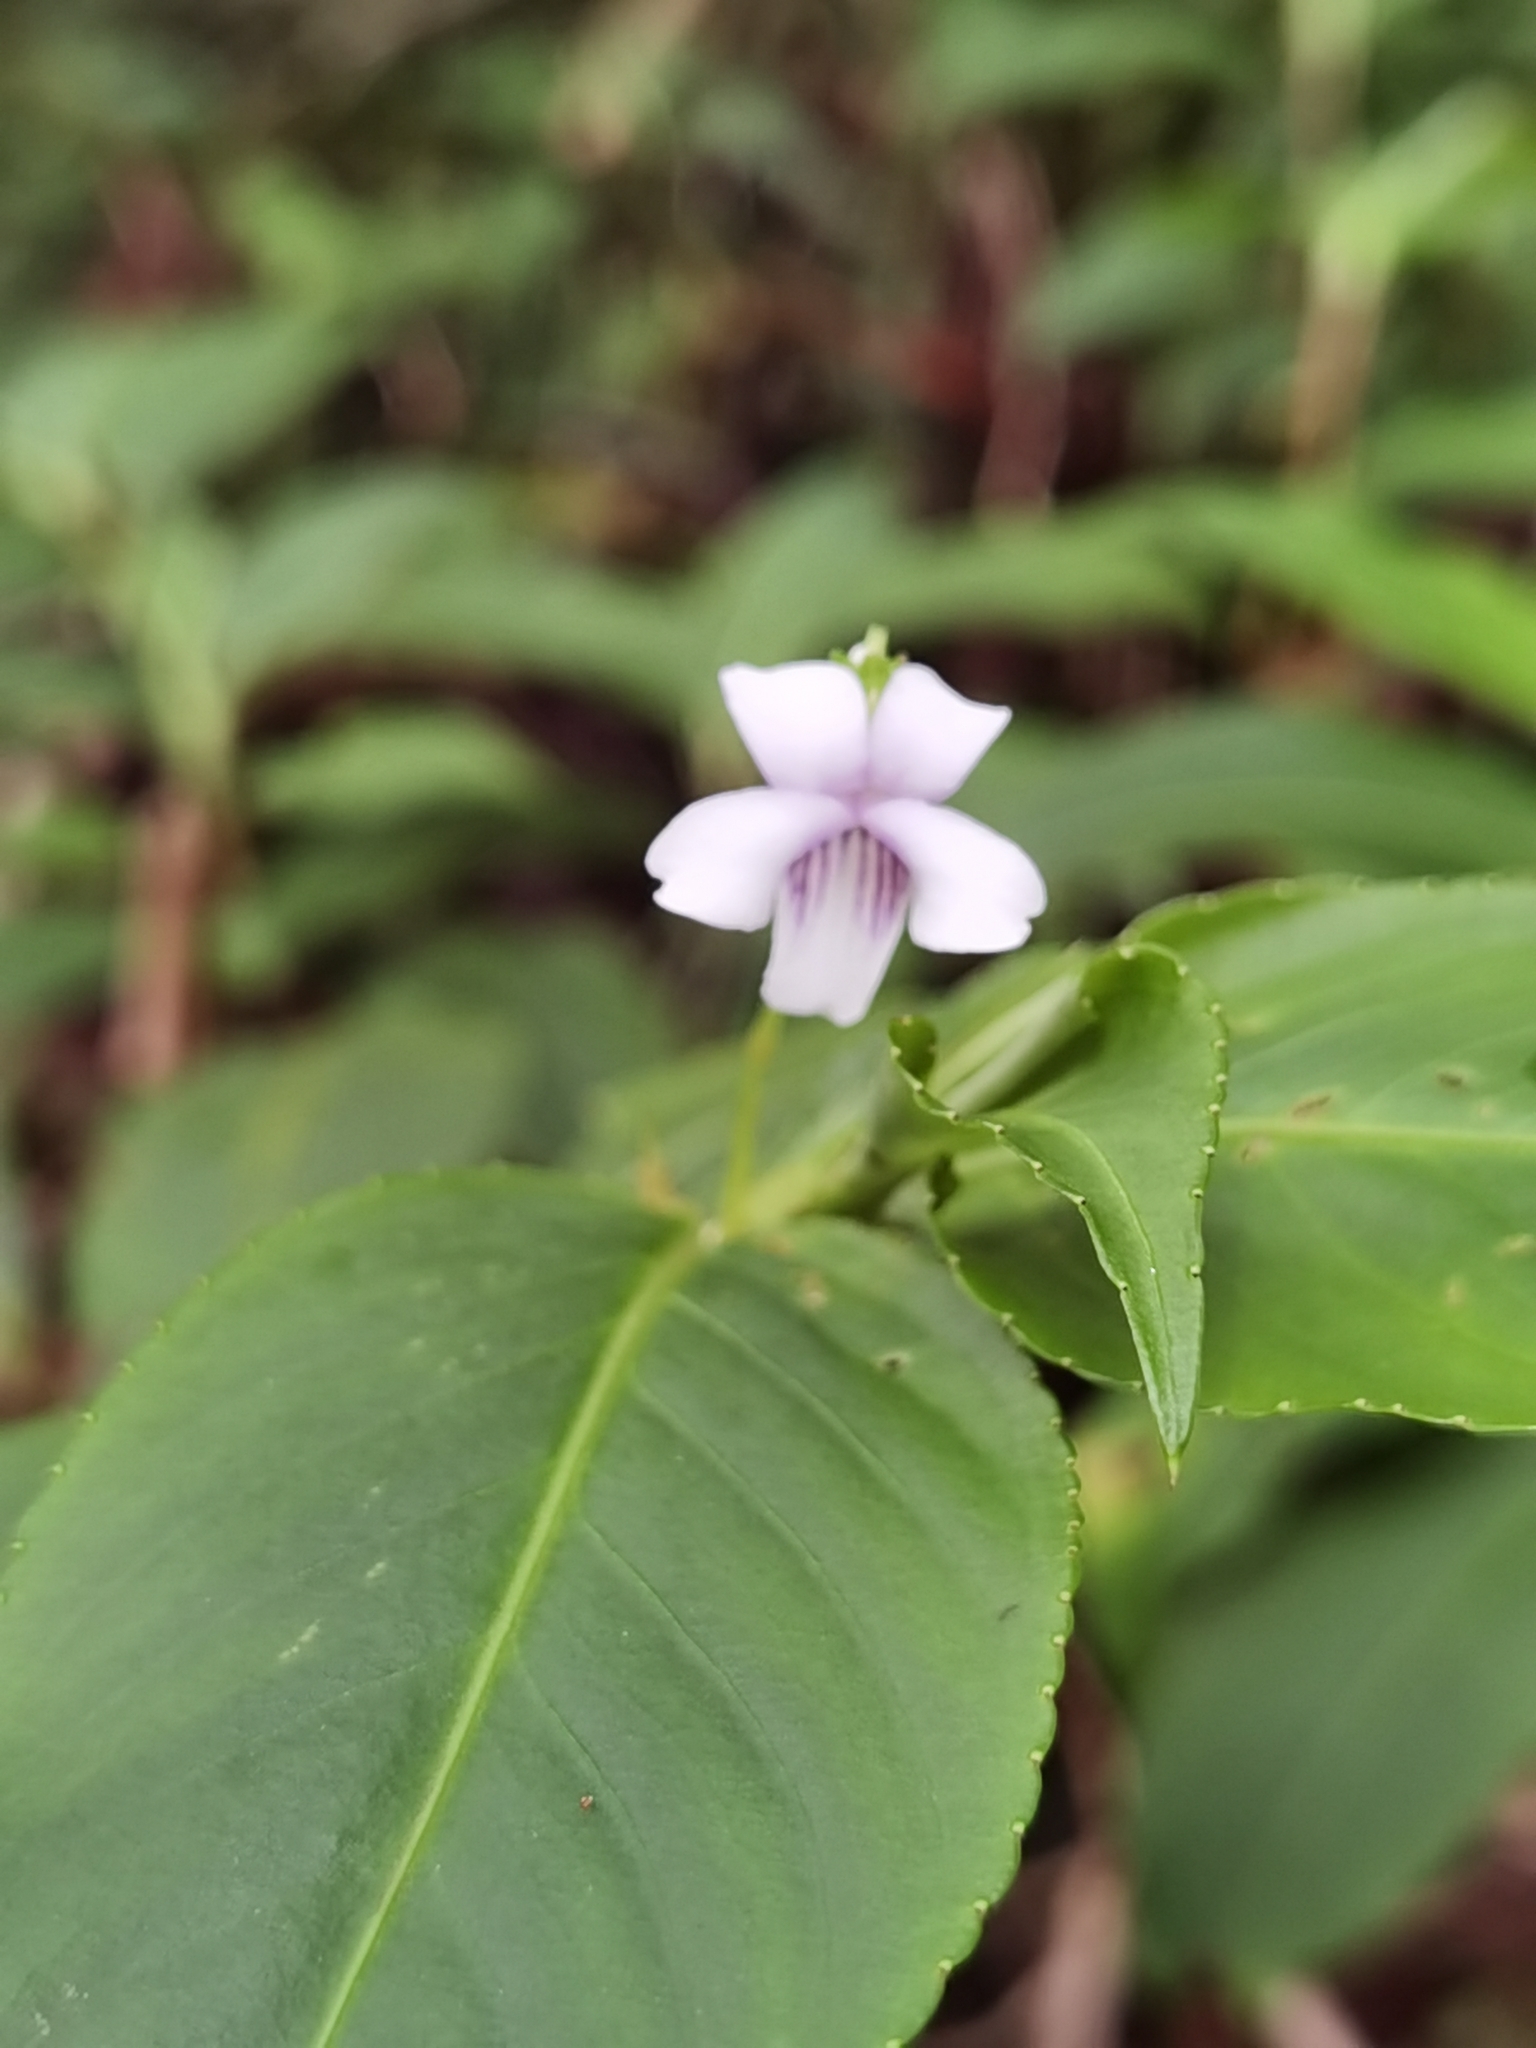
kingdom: Plantae
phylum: Tracheophyta
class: Magnoliopsida
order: Malpighiales
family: Violaceae
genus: Viola
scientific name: Viola stipularis
